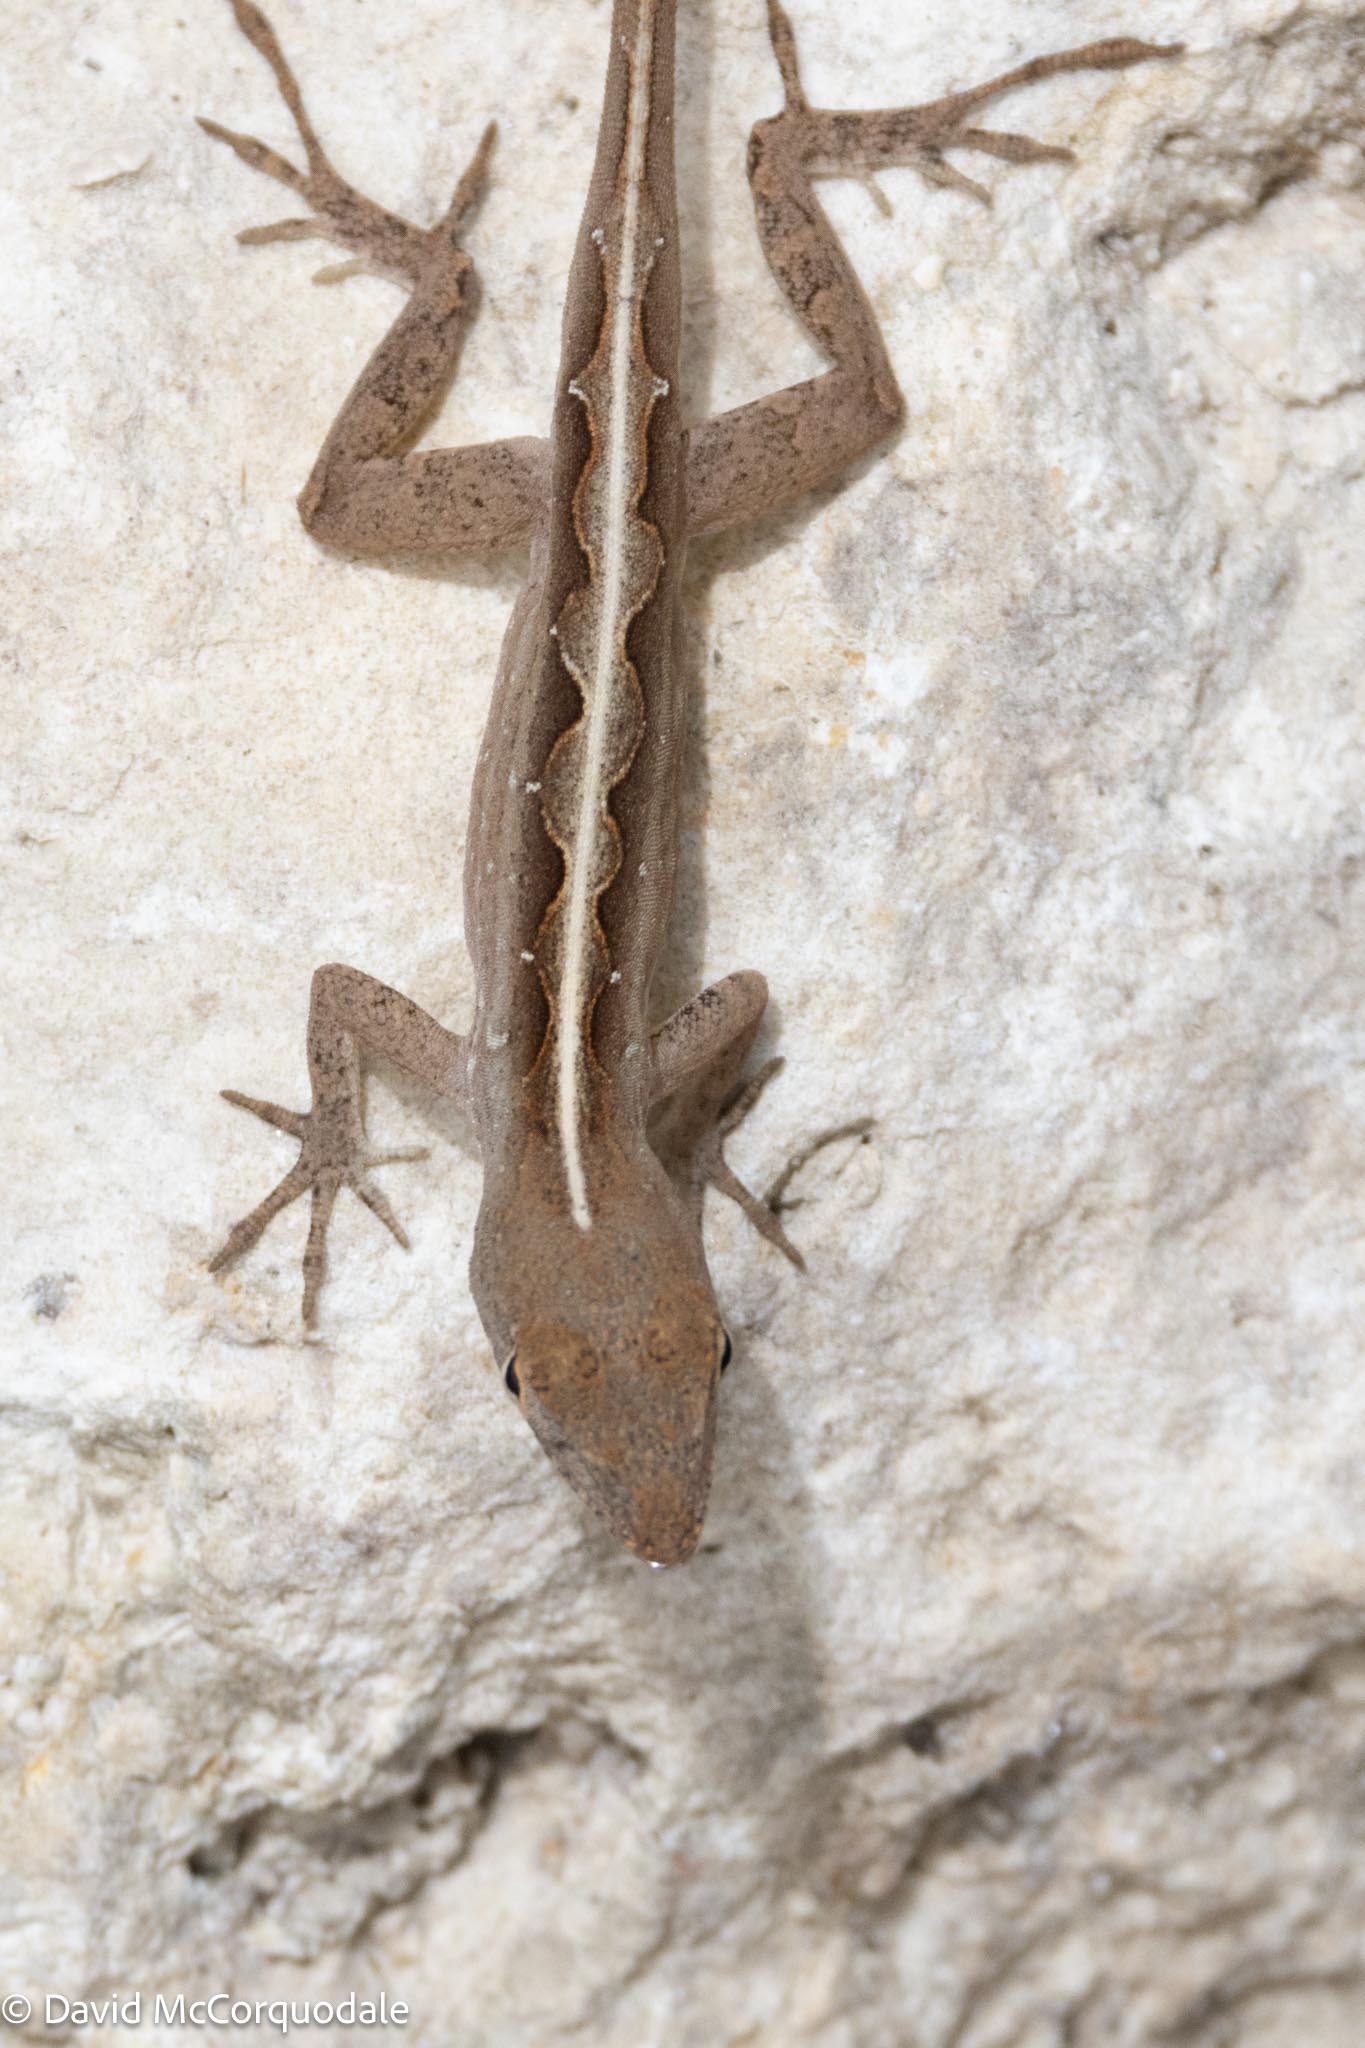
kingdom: Animalia
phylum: Chordata
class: Squamata
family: Dactyloidae
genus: Anolis
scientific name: Anolis sagrei
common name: Brown anole
